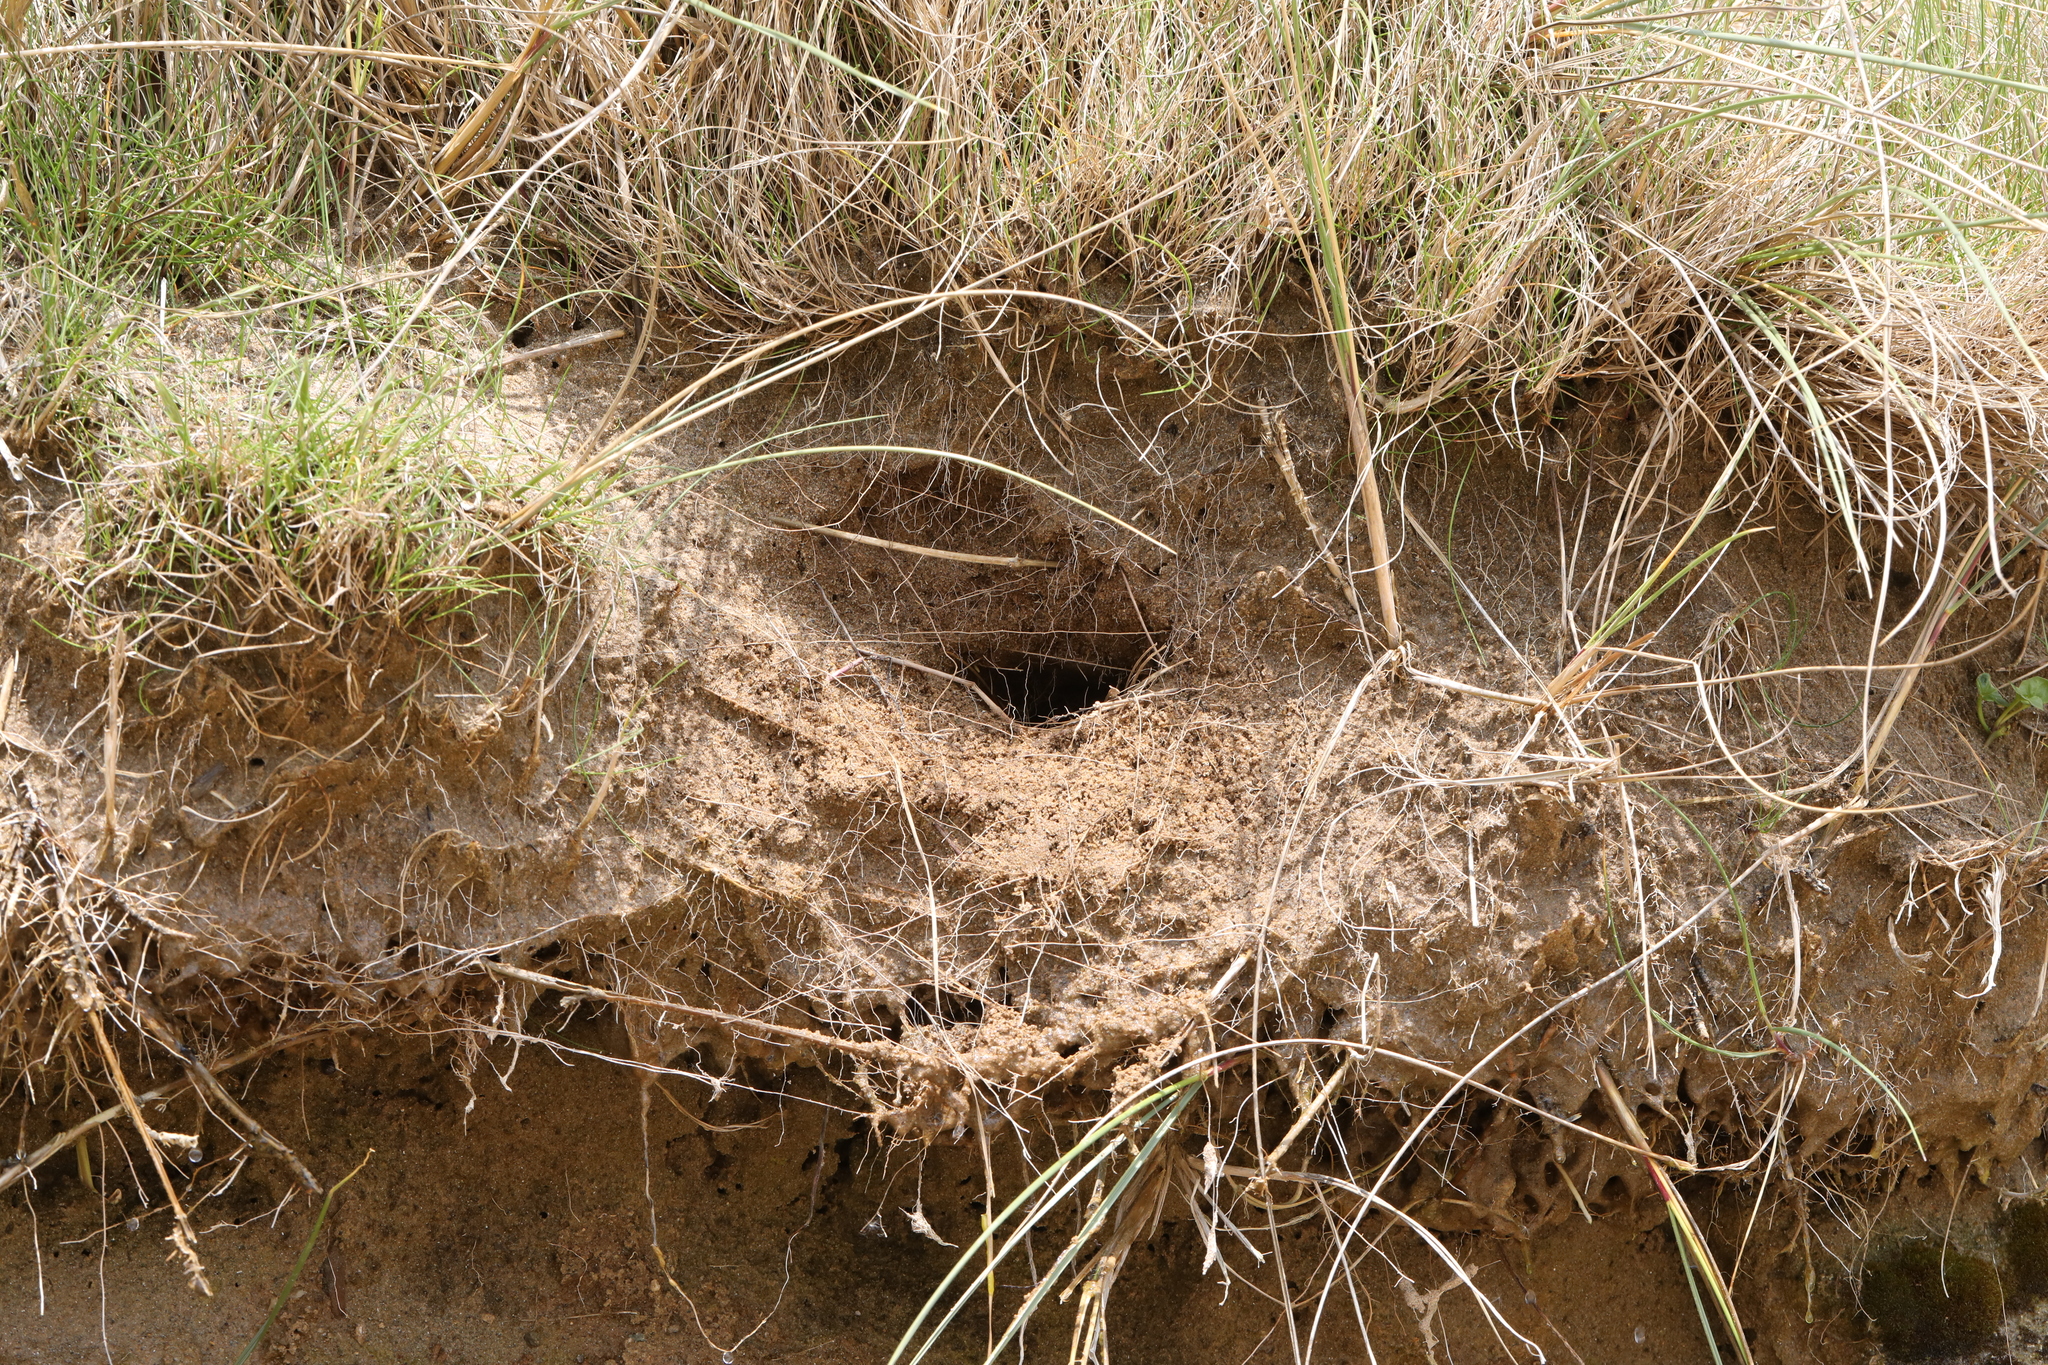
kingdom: Animalia
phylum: Chordata
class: Aves
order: Passeriformes
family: Hirundinidae
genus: Riparia
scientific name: Riparia riparia
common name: Sand martin
